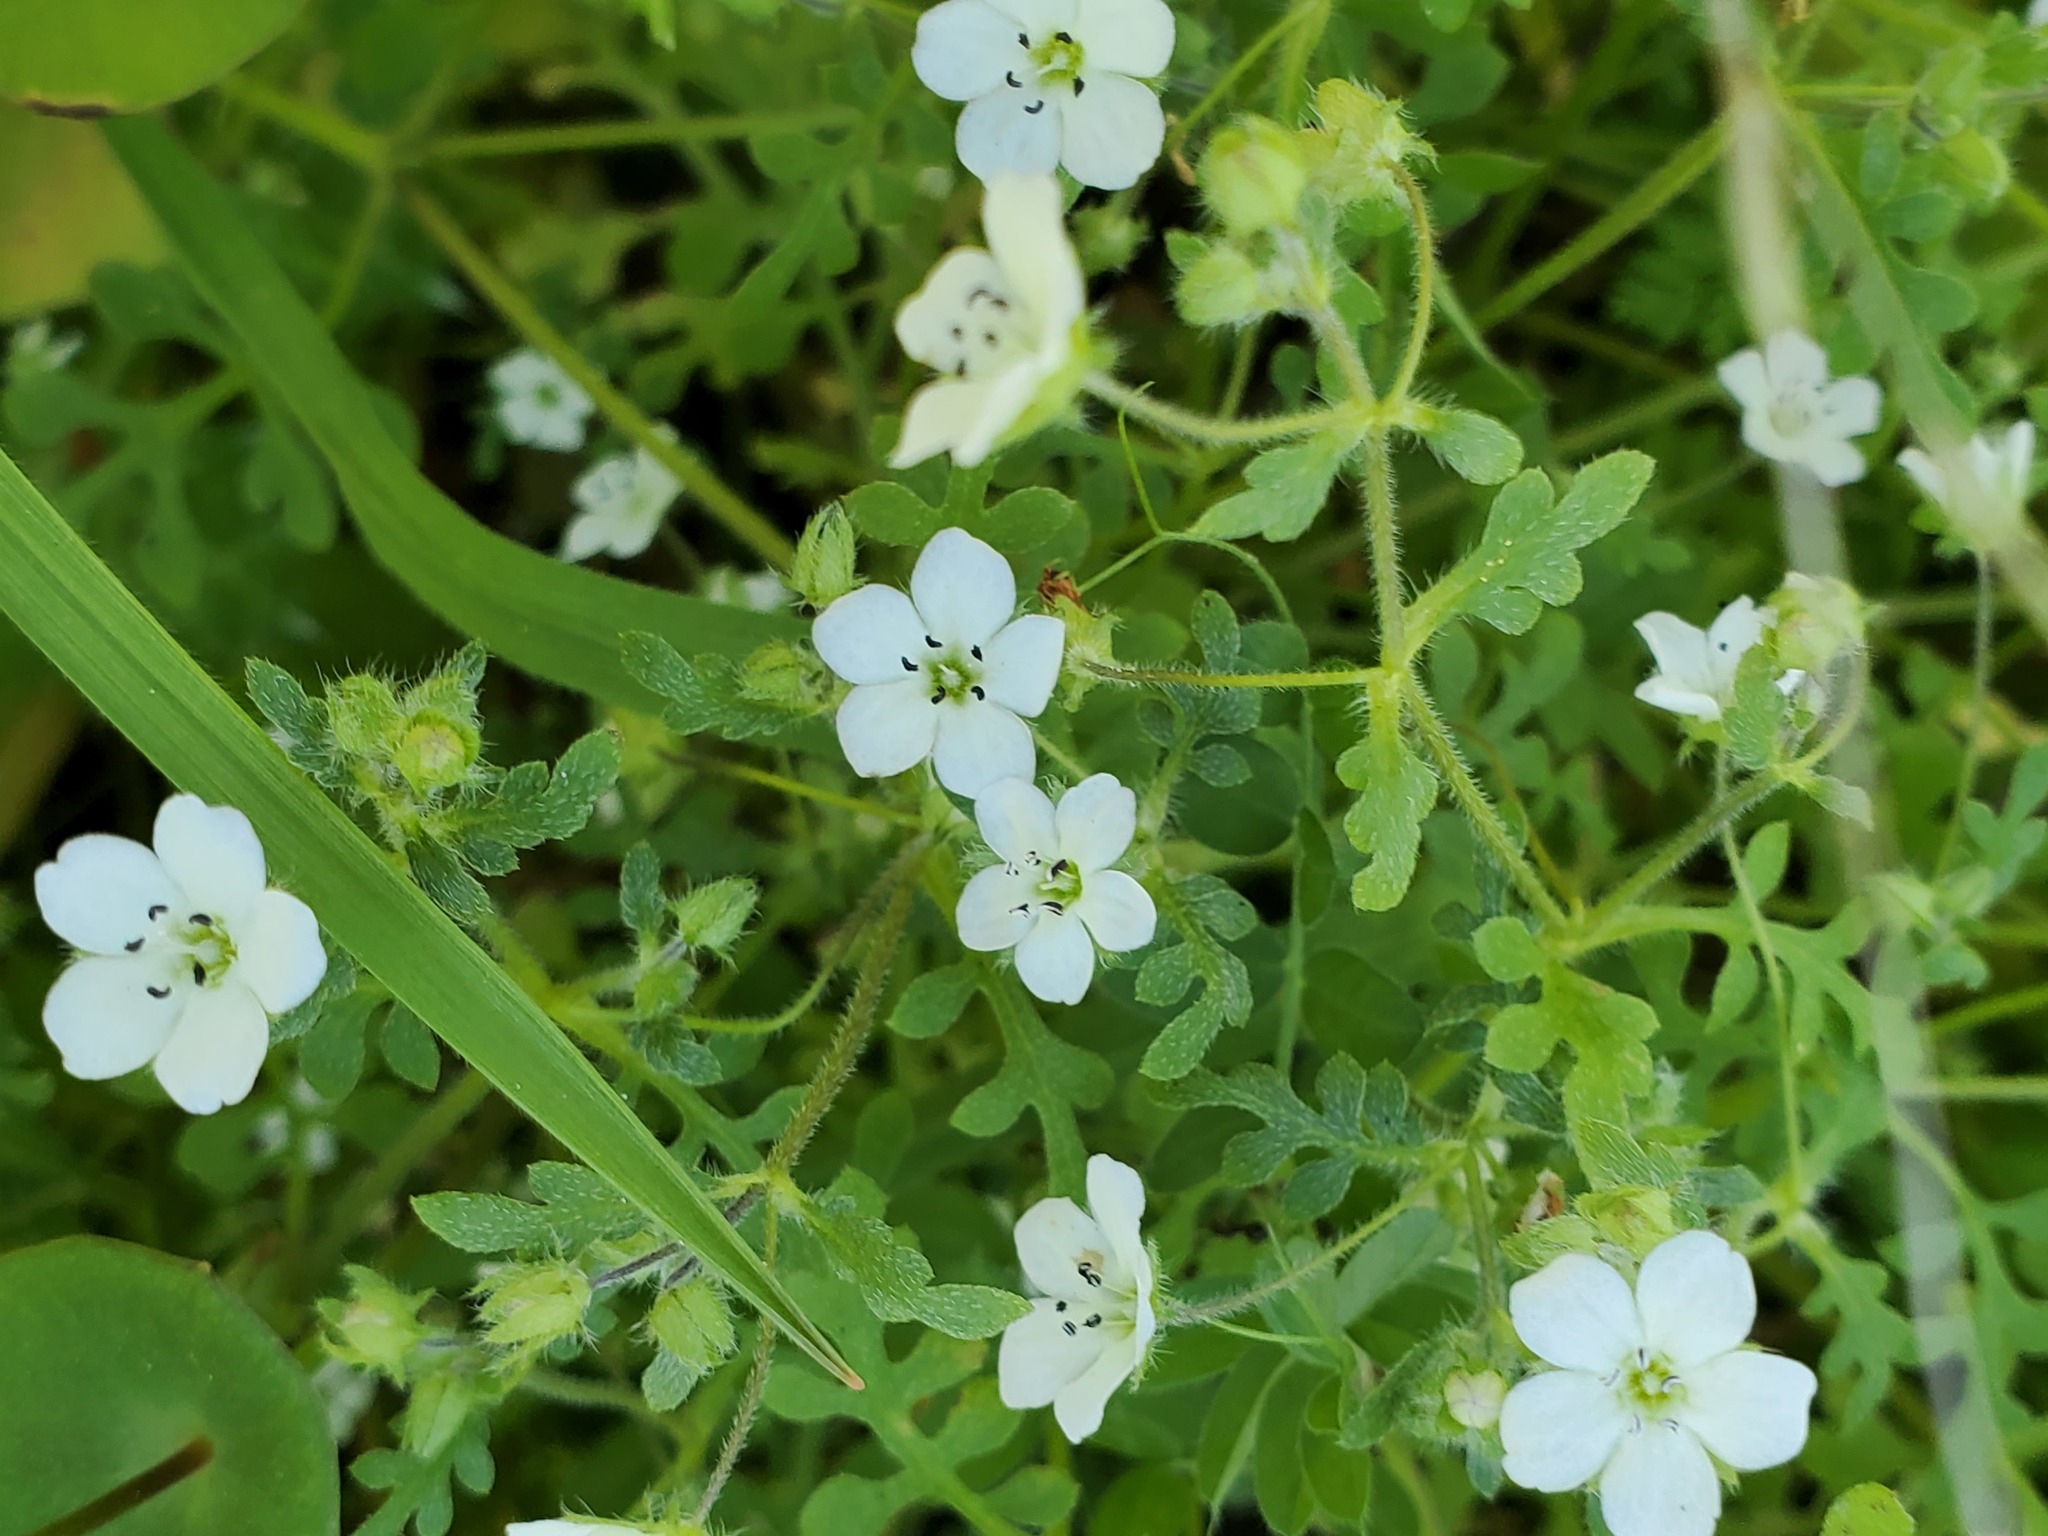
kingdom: Plantae
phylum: Tracheophyta
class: Magnoliopsida
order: Boraginales
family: Hydrophyllaceae
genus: Nemophila
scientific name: Nemophila heterophylla
